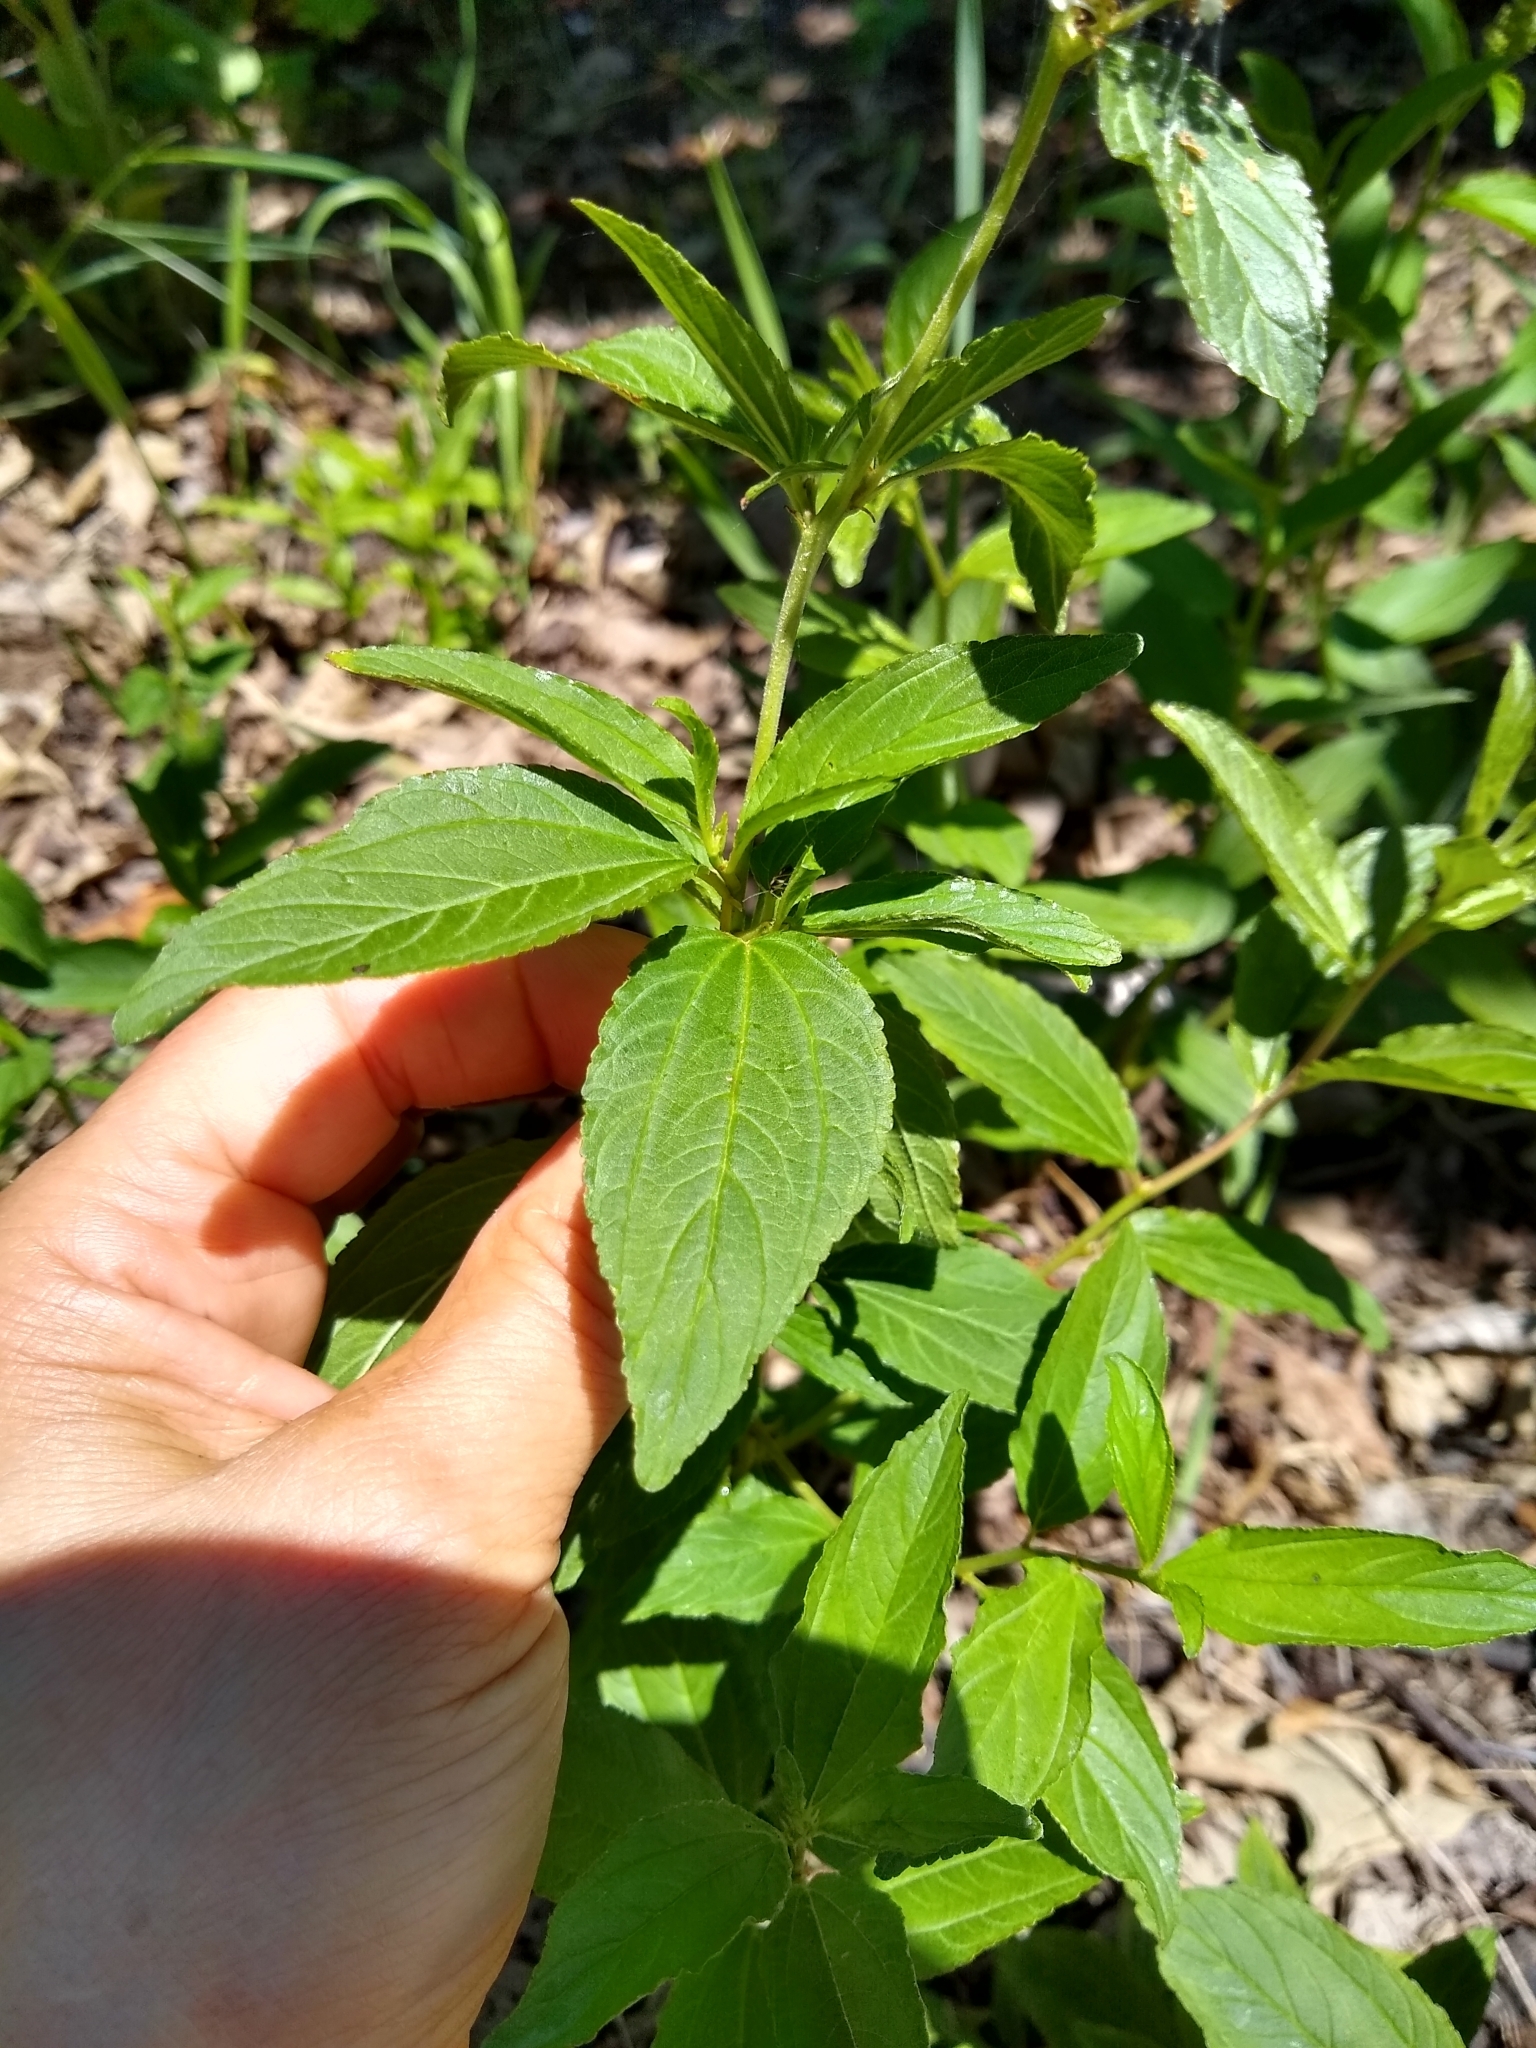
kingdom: Plantae
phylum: Tracheophyta
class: Magnoliopsida
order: Rosales
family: Rhamnaceae
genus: Ceanothus
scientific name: Ceanothus americanus
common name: Redroot
